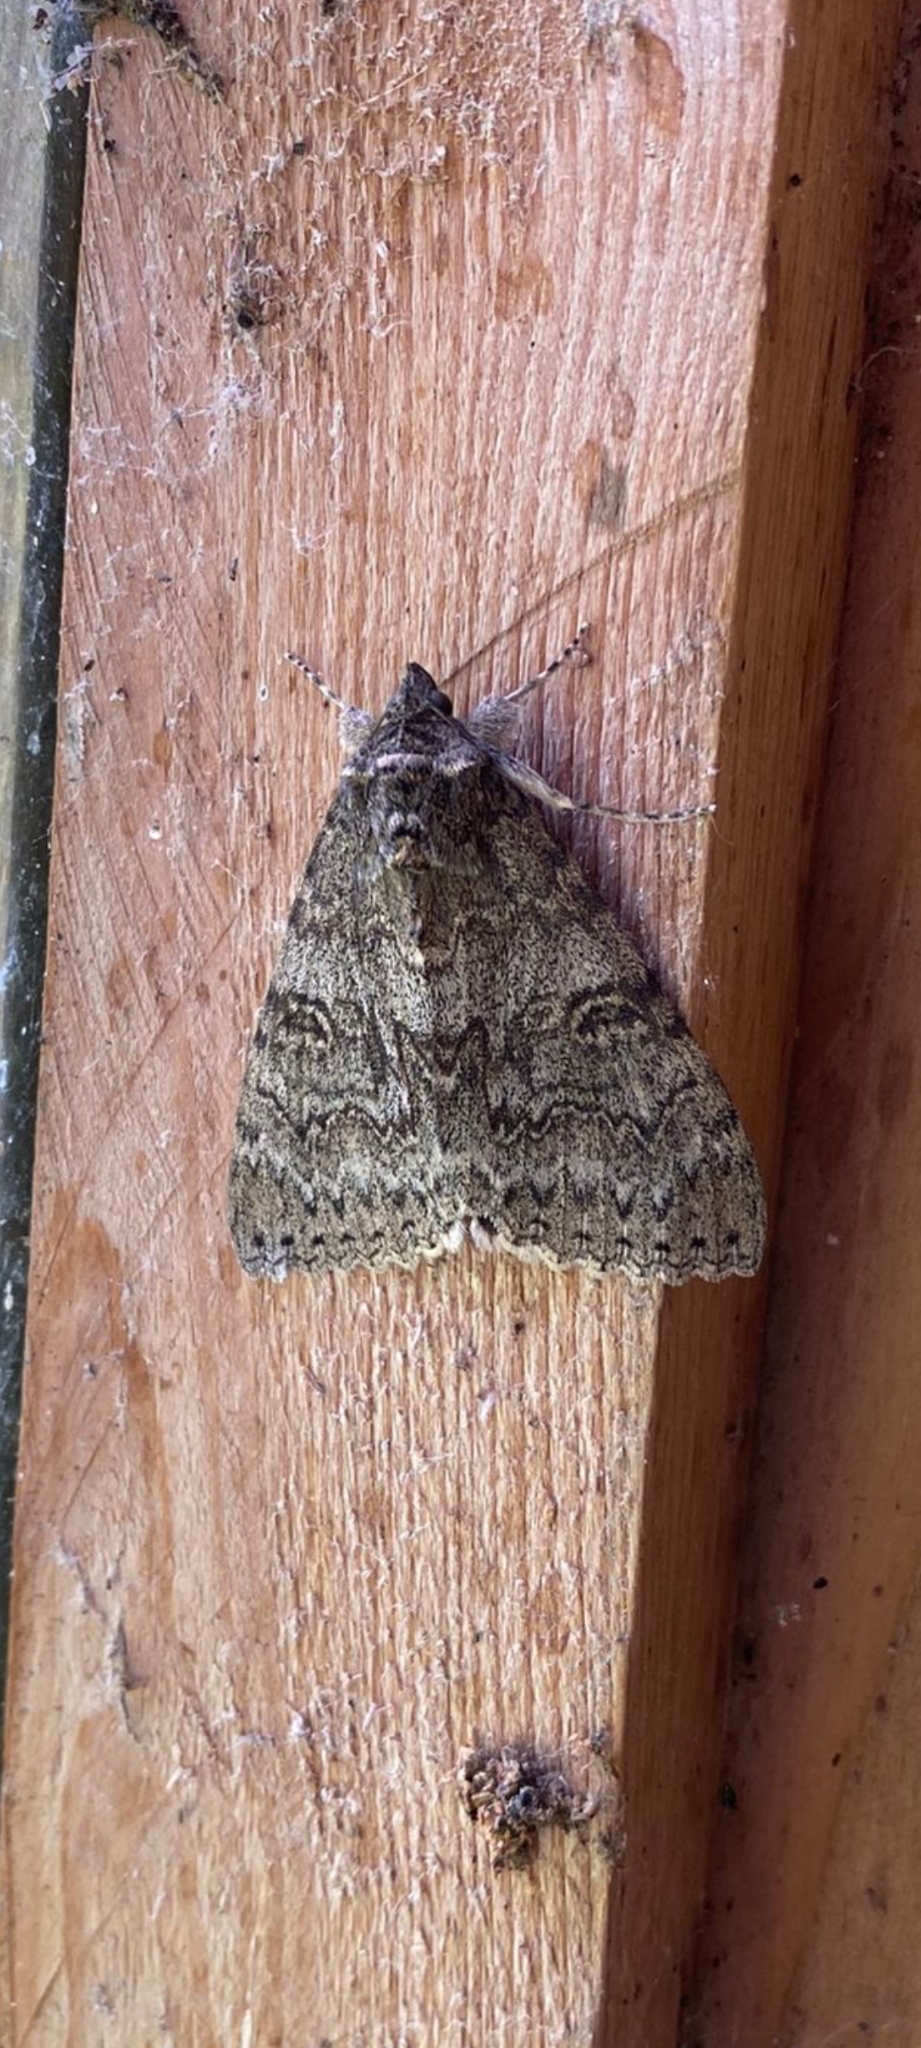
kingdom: Animalia
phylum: Arthropoda
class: Insecta
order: Lepidoptera
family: Erebidae
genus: Catocala
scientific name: Catocala nupta
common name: Red underwing
